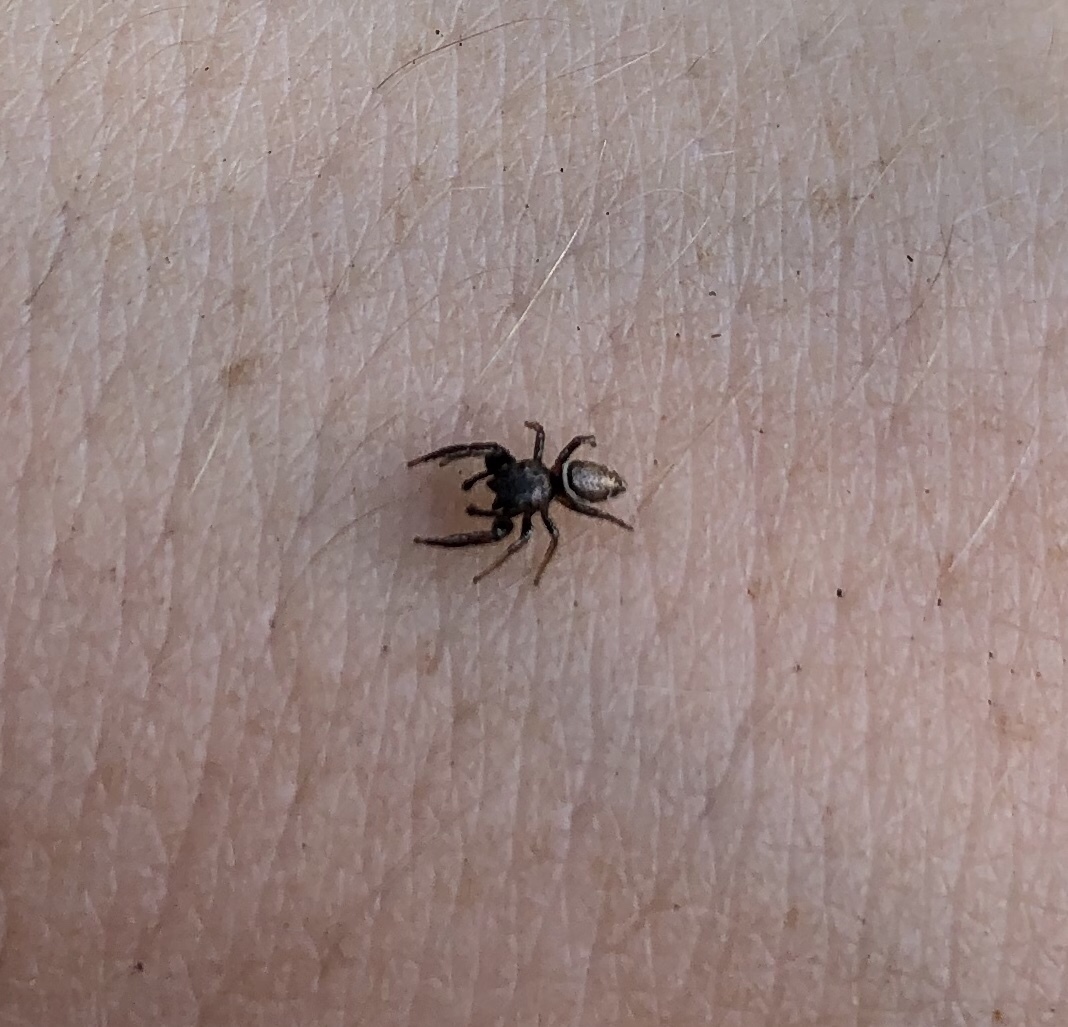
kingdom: Animalia
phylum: Arthropoda
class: Arachnida
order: Araneae
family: Salticidae
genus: Sassacus
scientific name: Sassacus vitis
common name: Jumping spiders
